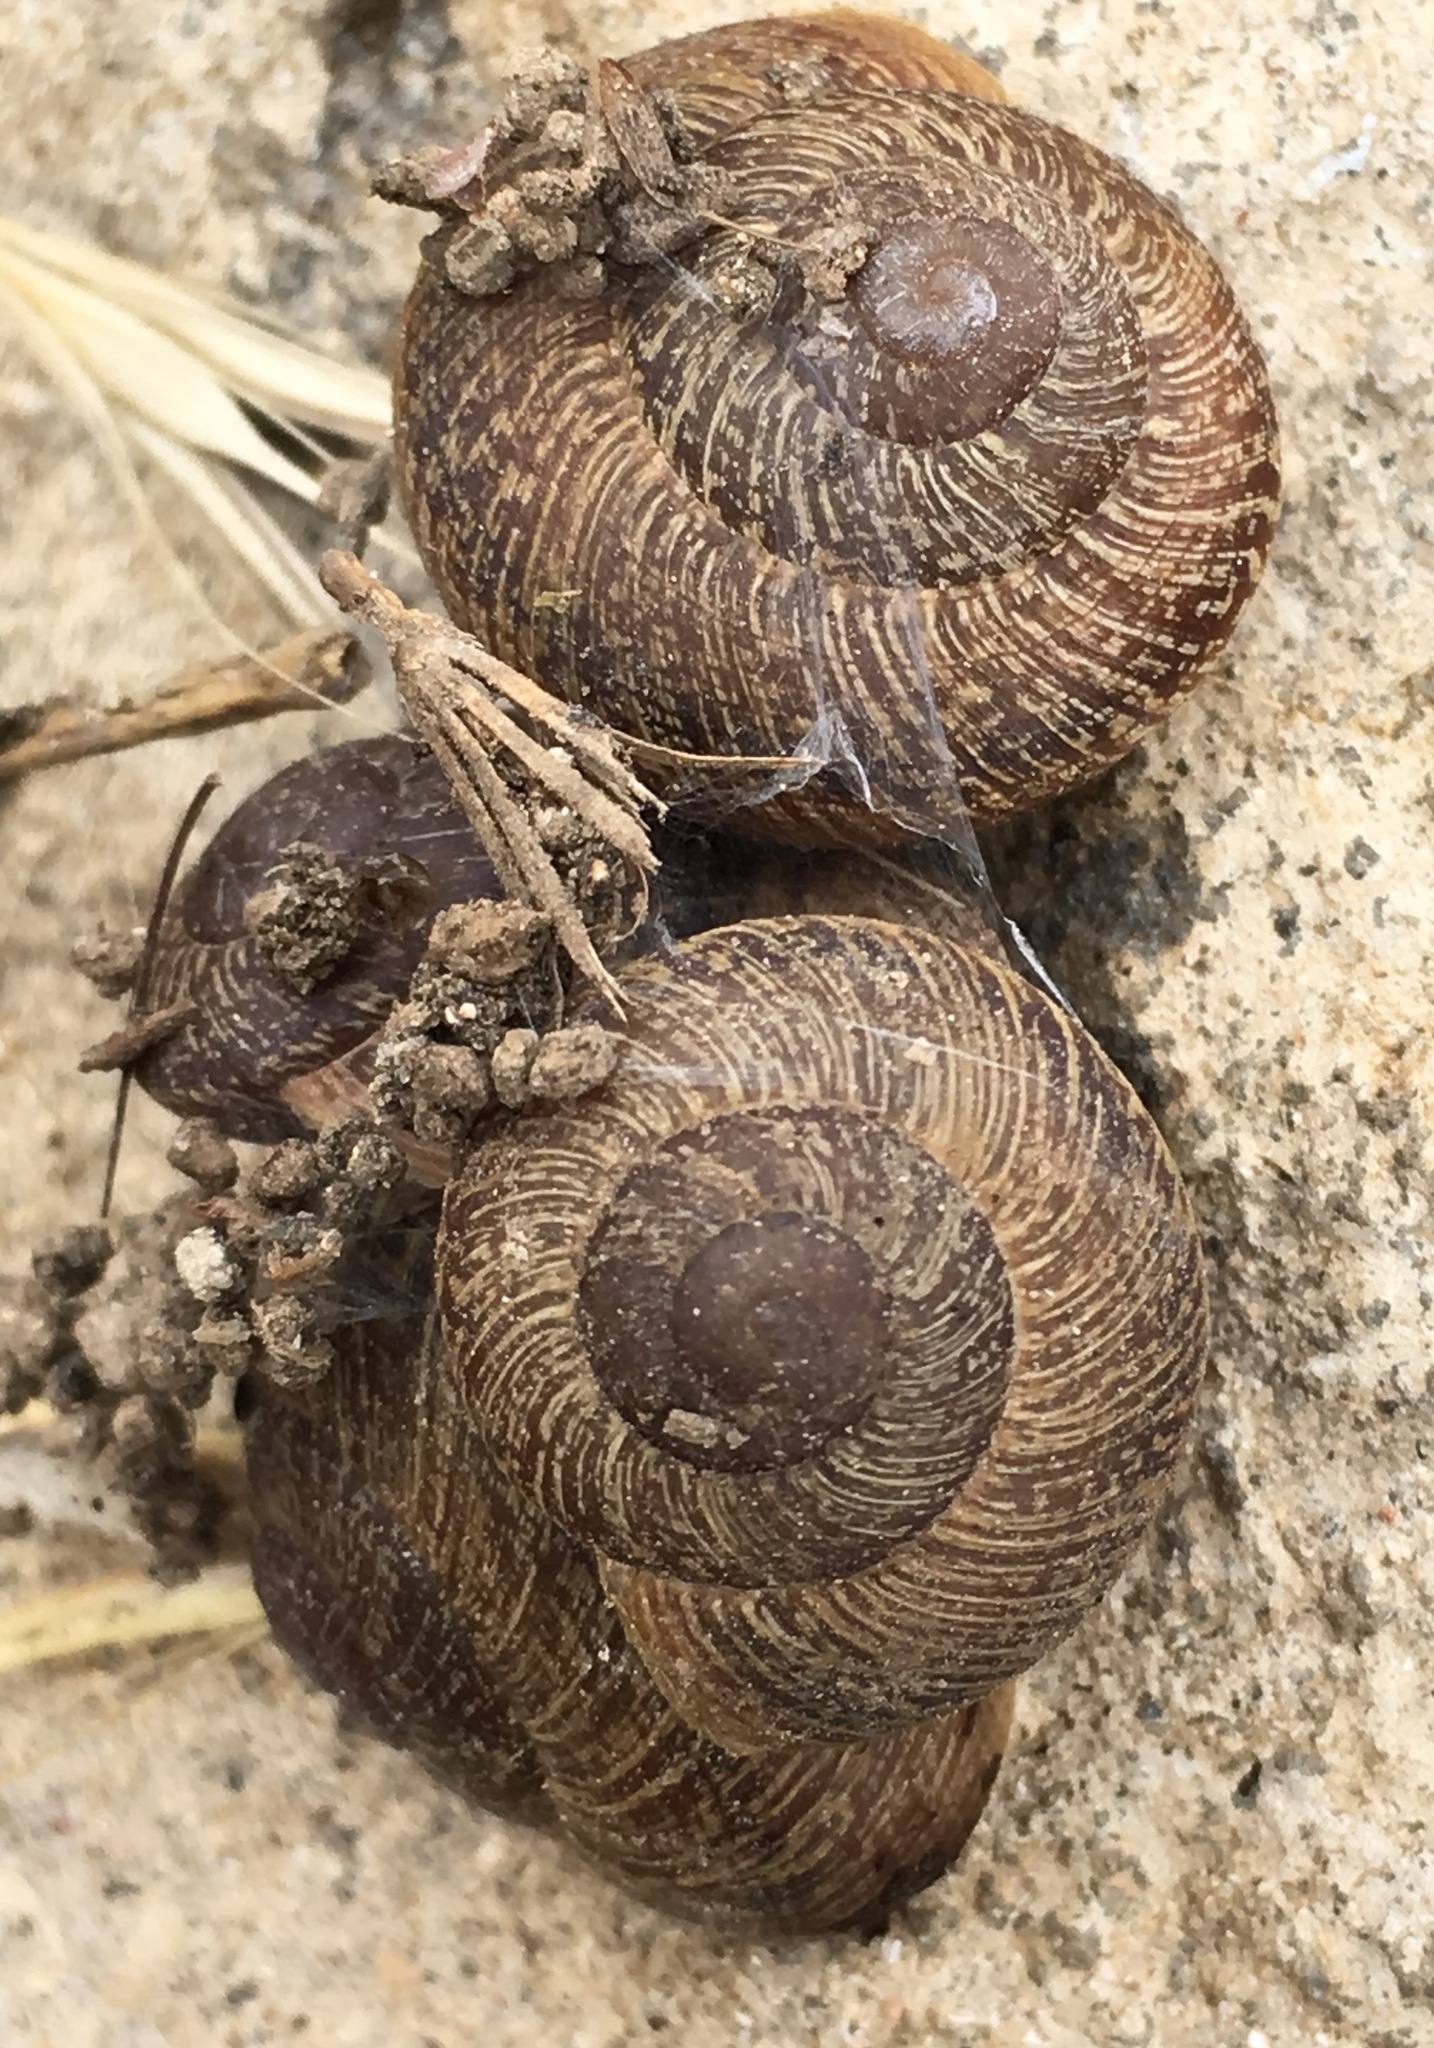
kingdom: Animalia
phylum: Mollusca
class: Gastropoda
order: Stylommatophora
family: Xanthonychidae
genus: Xerarionta
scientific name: Xerarionta intercisa
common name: Plain cactus snail
